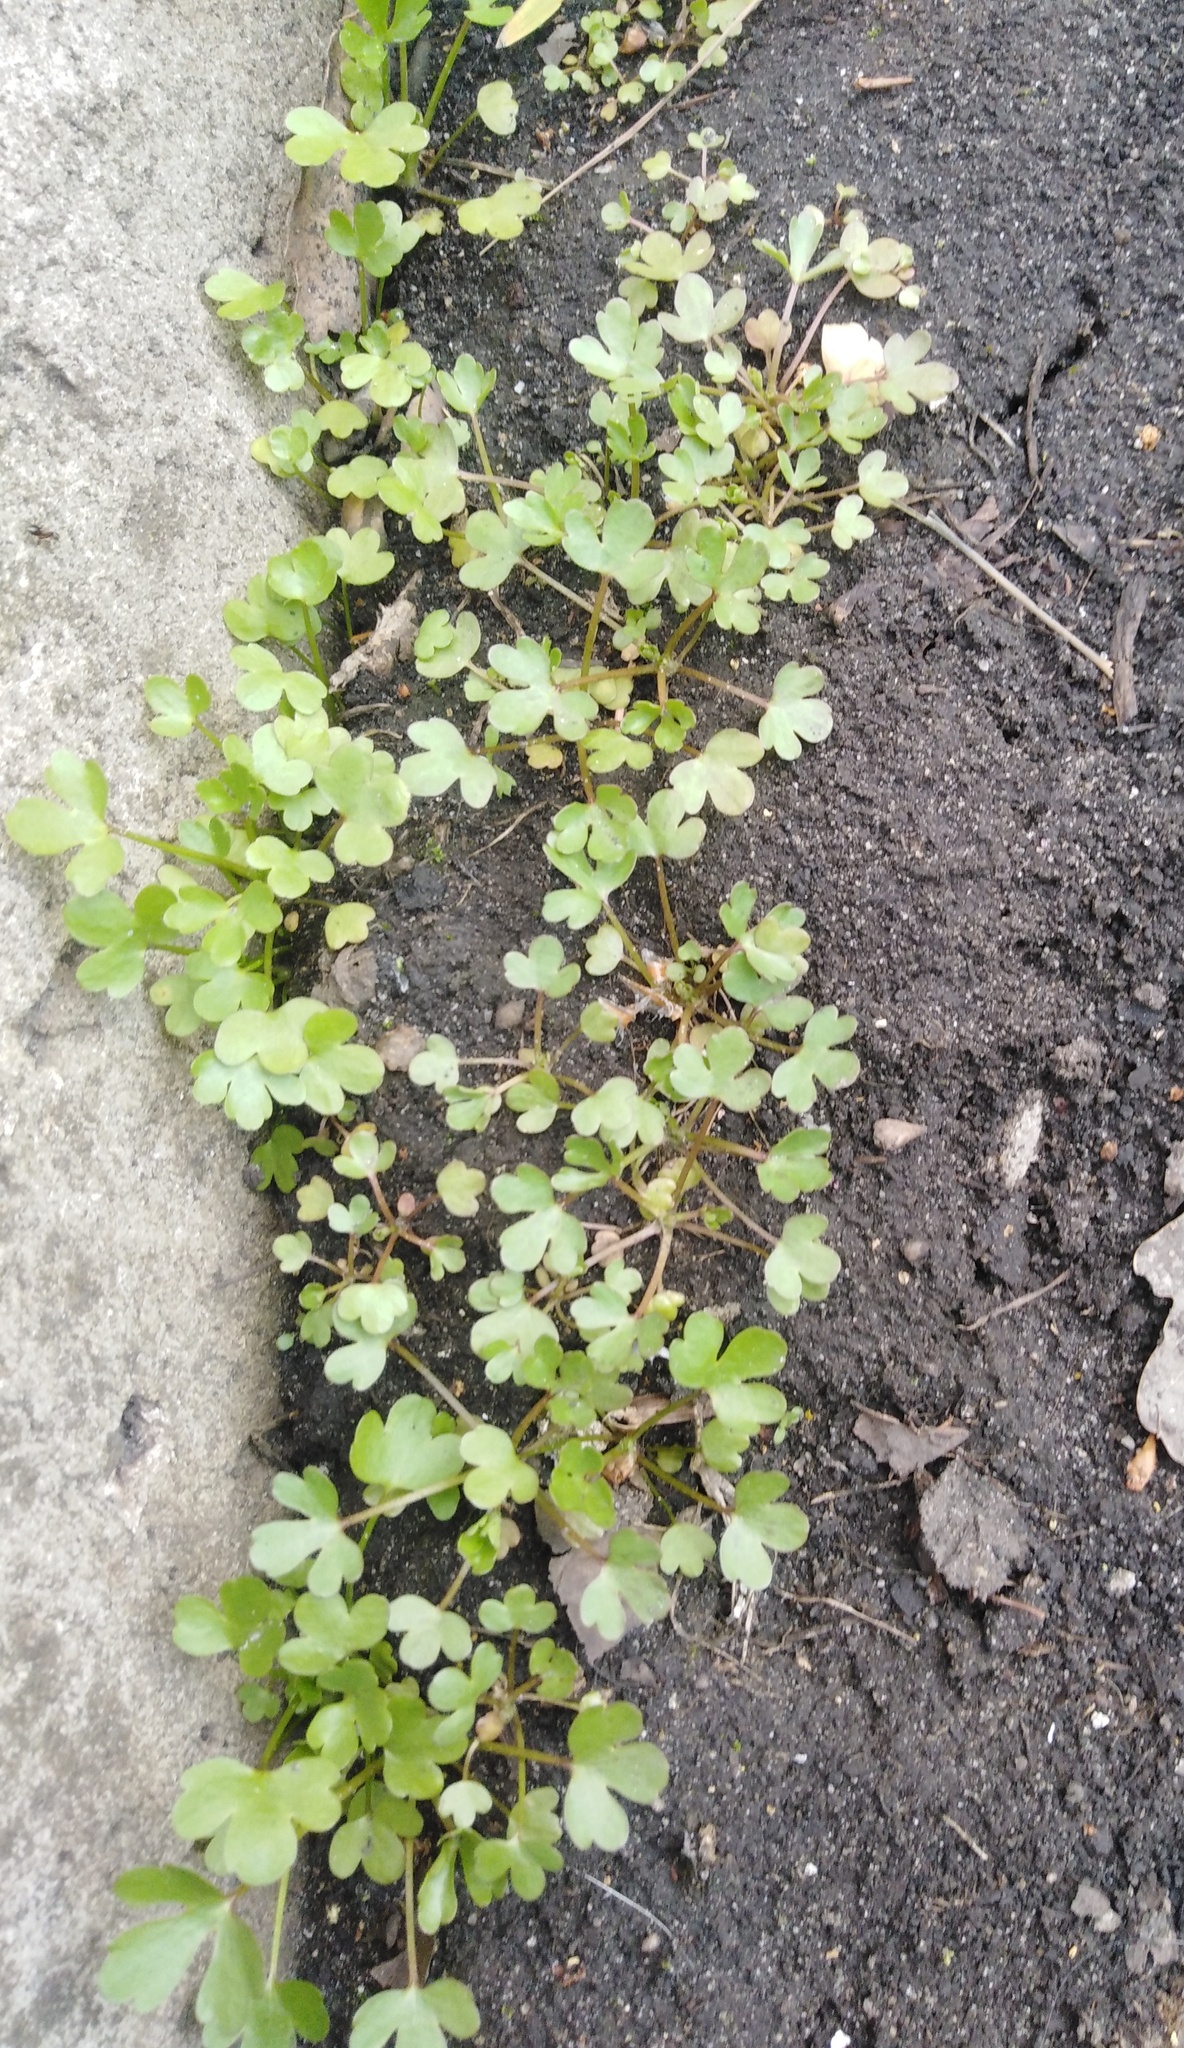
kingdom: Plantae
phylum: Tracheophyta
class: Magnoliopsida
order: Ranunculales
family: Ranunculaceae
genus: Ranunculus
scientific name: Ranunculus sceleratus
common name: Celery-leaved buttercup
